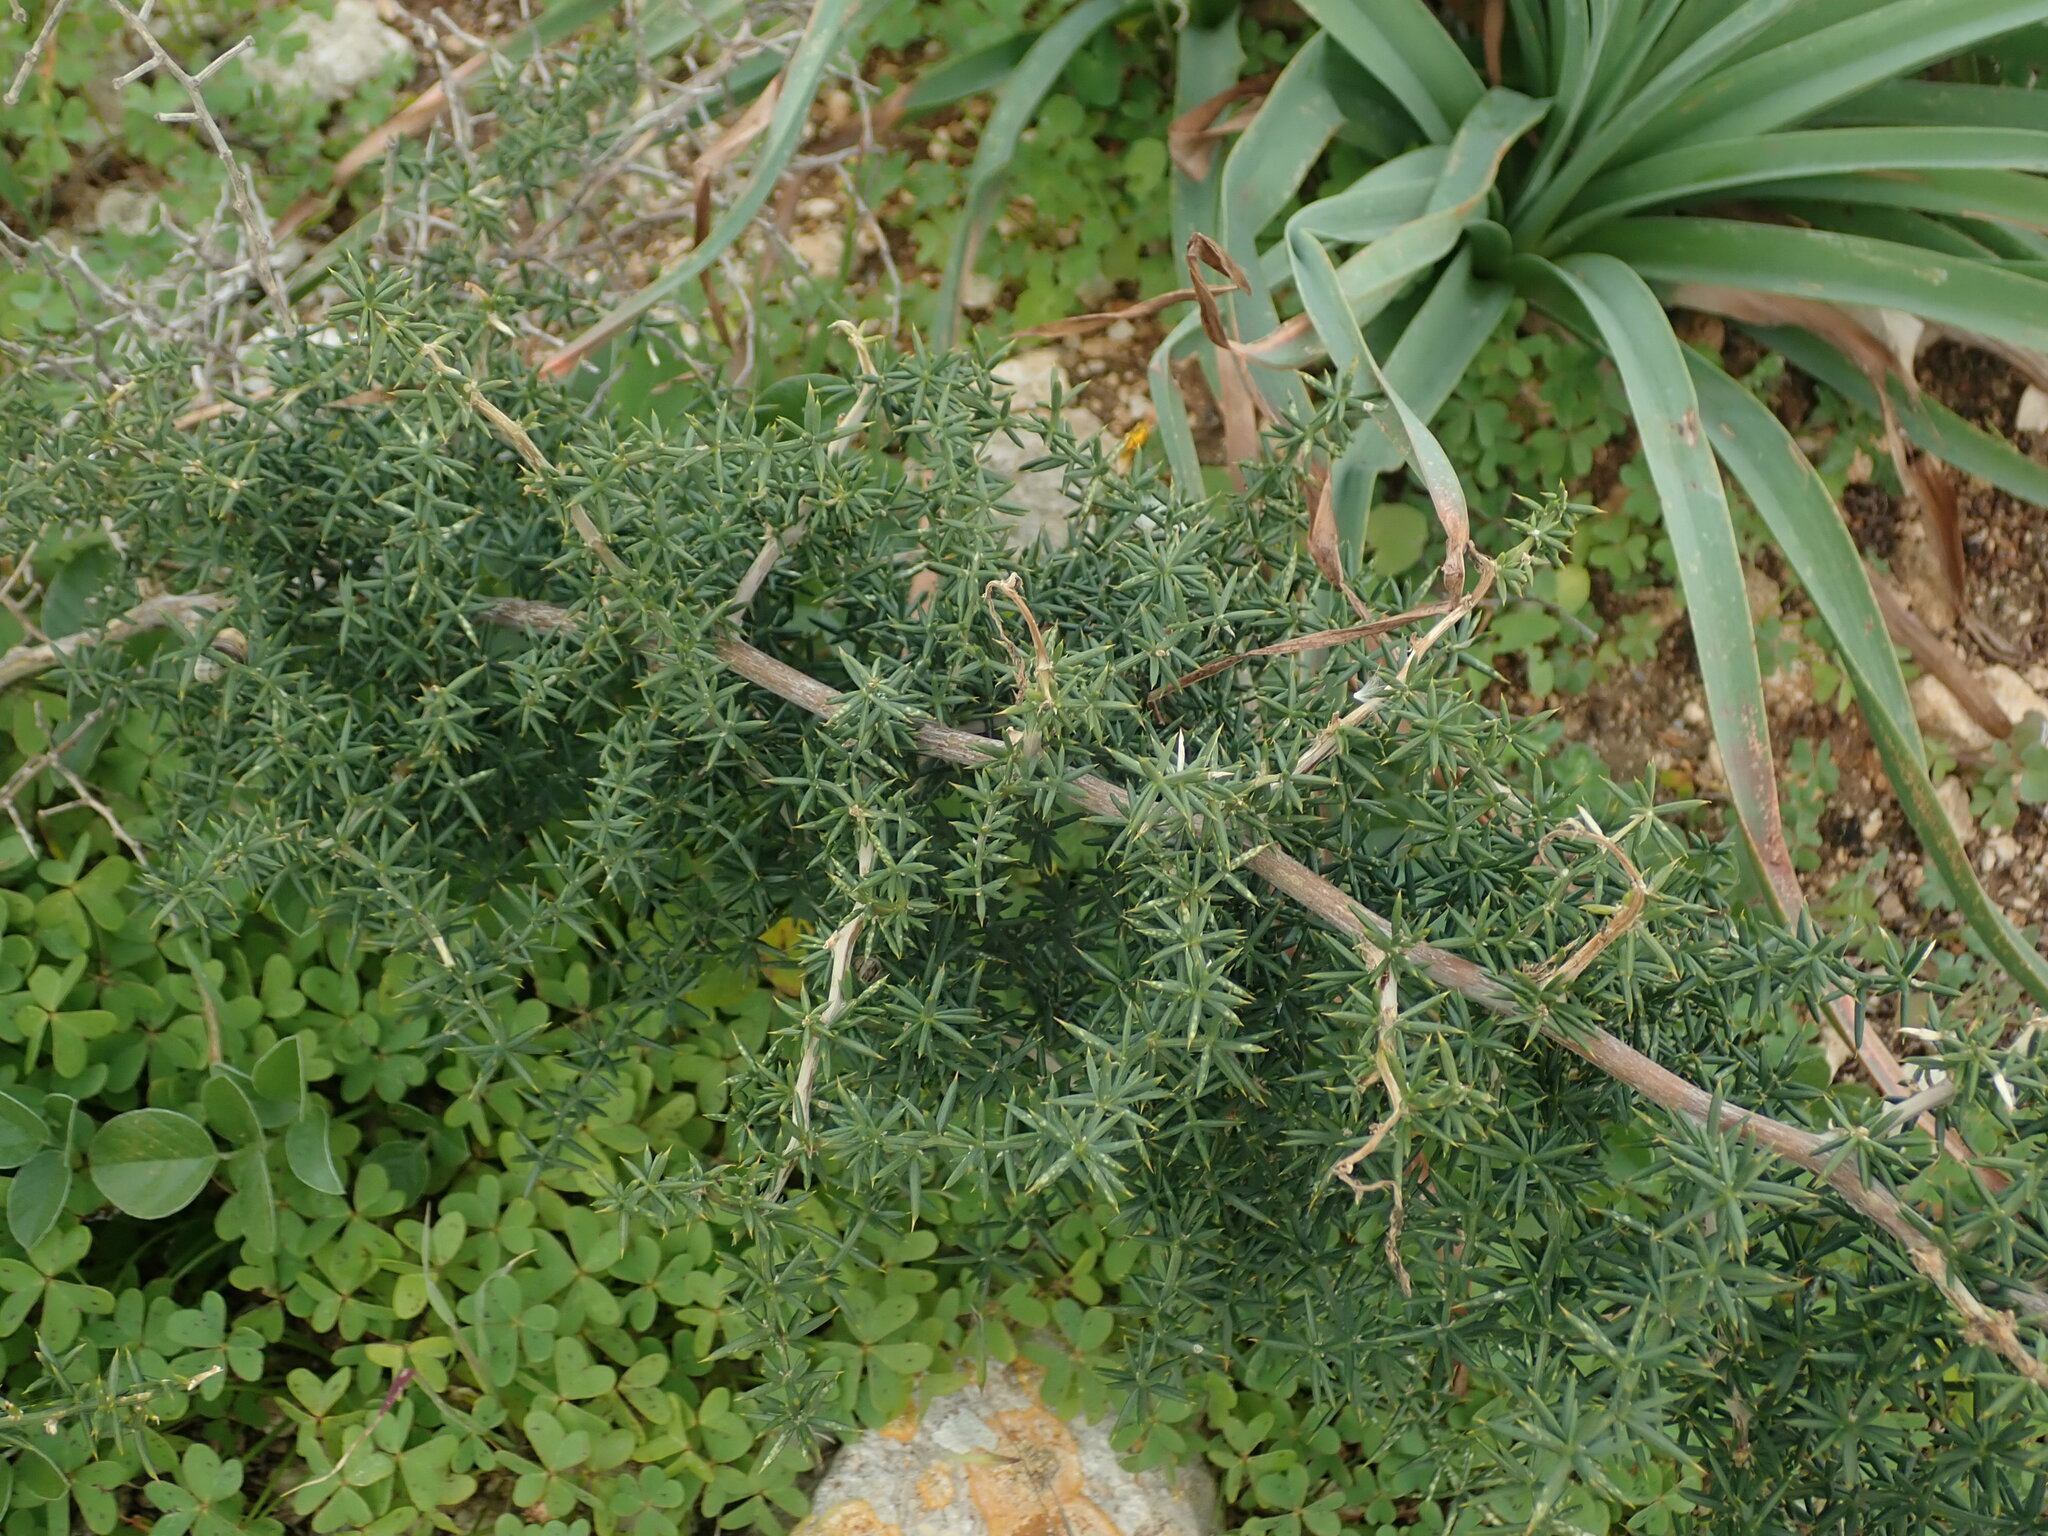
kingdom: Plantae
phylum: Tracheophyta
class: Liliopsida
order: Asparagales
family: Asparagaceae
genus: Asparagus
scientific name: Asparagus aphyllus
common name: Mediterranean asparagus
